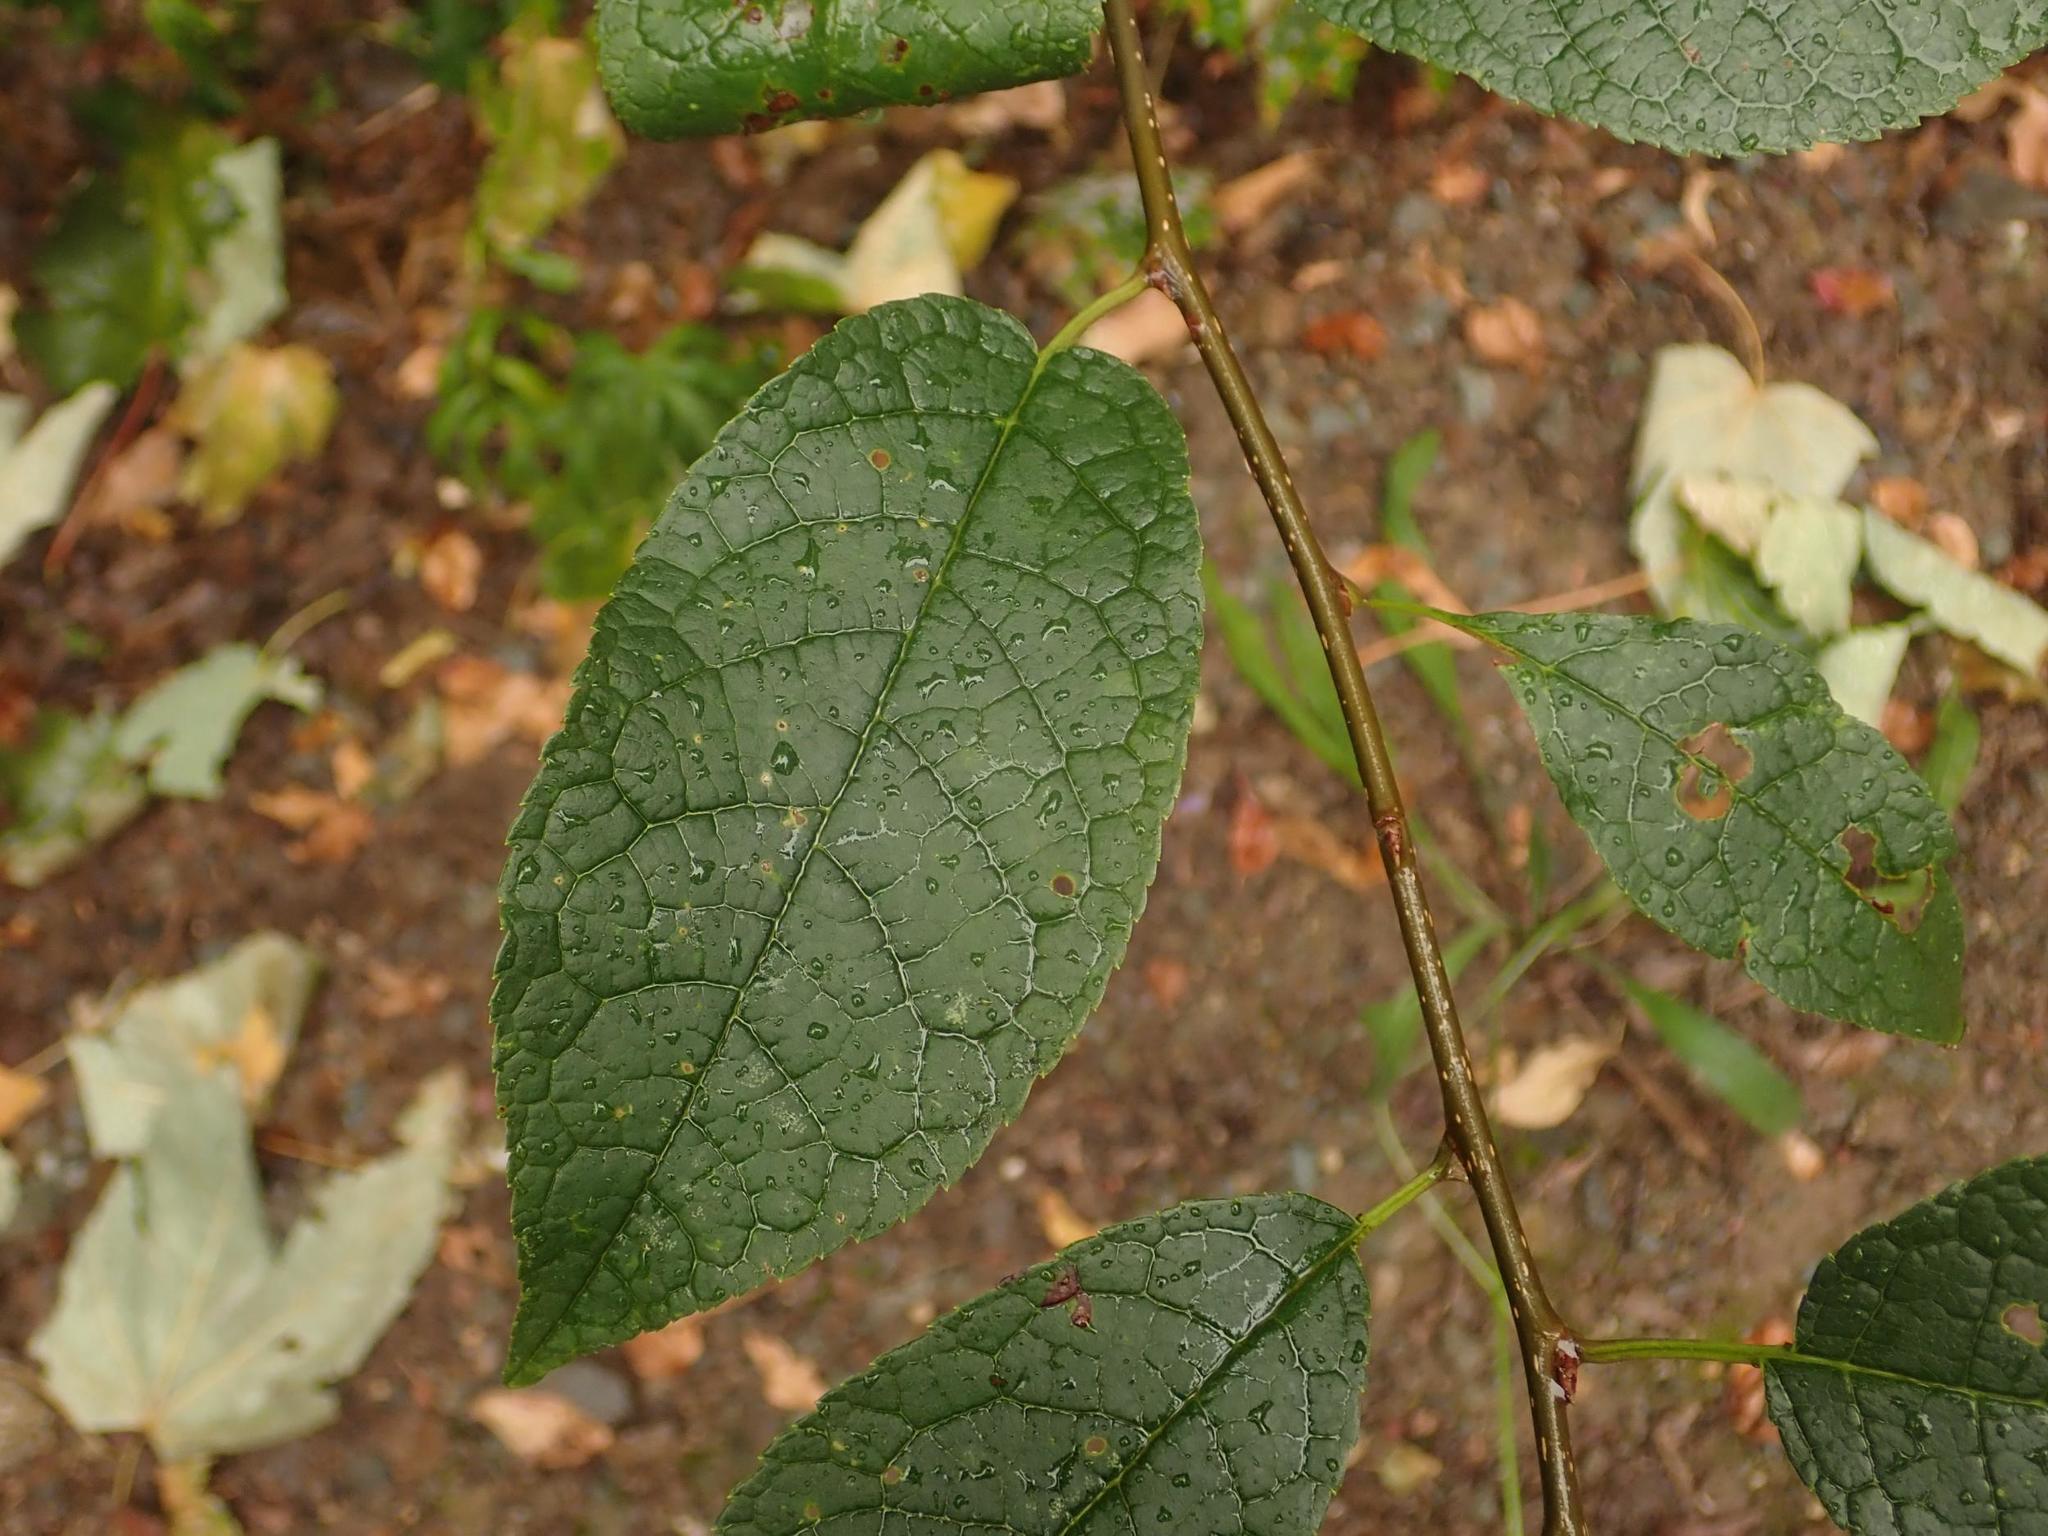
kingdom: Plantae
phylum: Tracheophyta
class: Magnoliopsida
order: Rosales
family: Rosaceae
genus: Prunus
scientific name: Prunus padus
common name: Bird cherry
